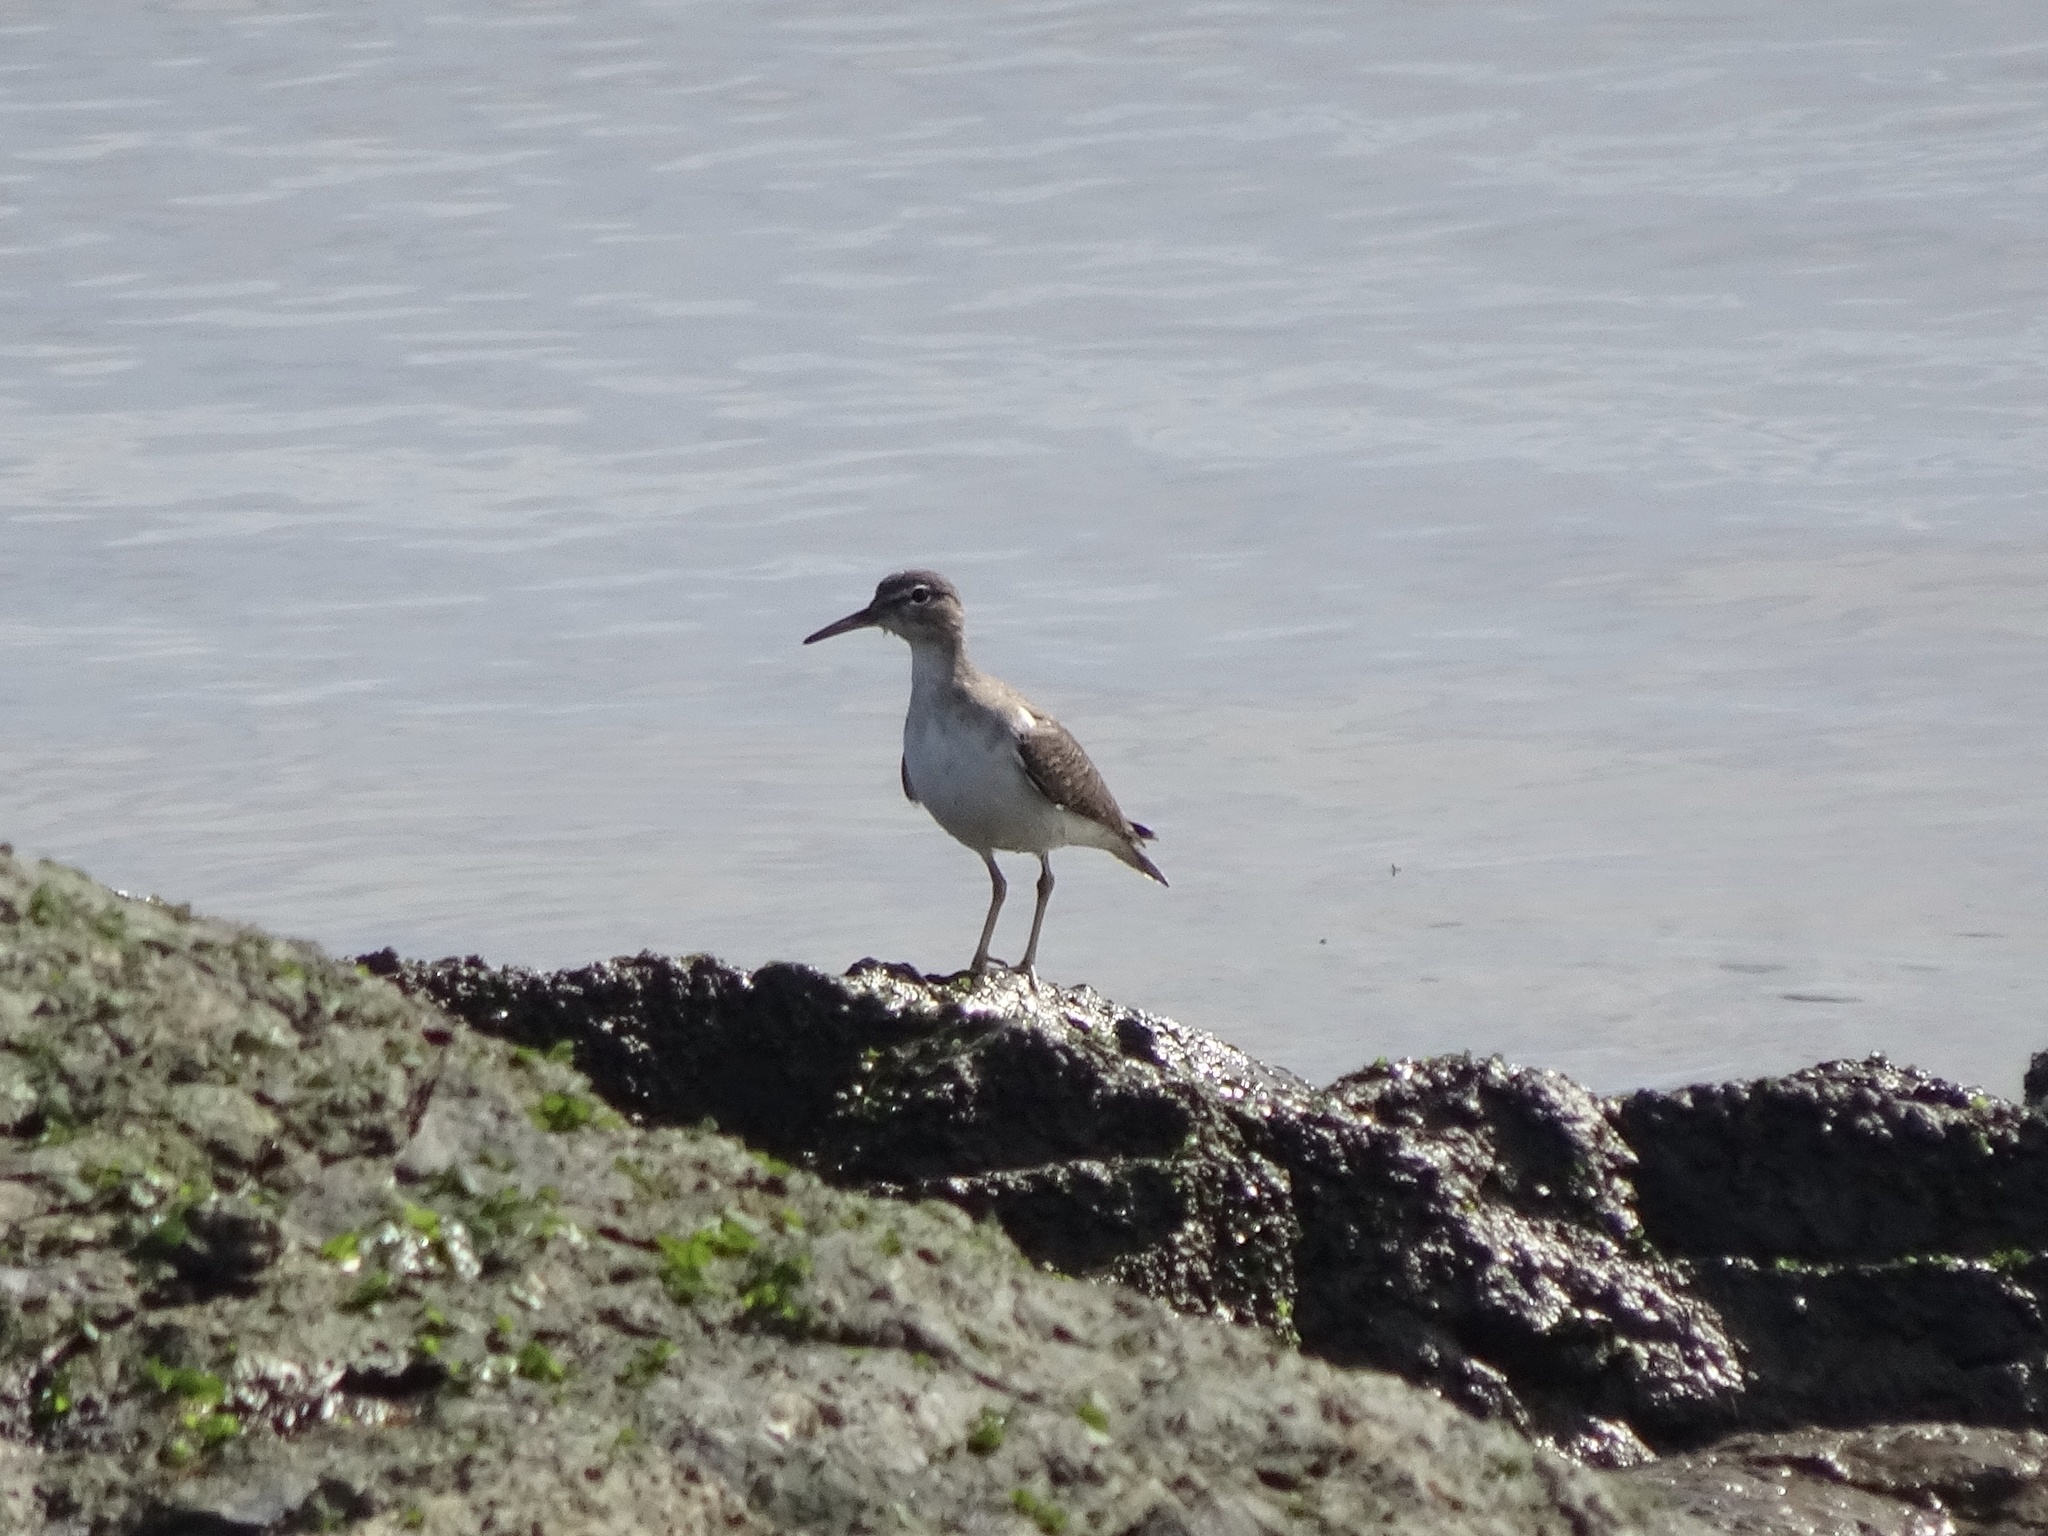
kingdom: Animalia
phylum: Chordata
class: Aves
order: Charadriiformes
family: Scolopacidae
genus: Actitis
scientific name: Actitis macularius
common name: Spotted sandpiper
